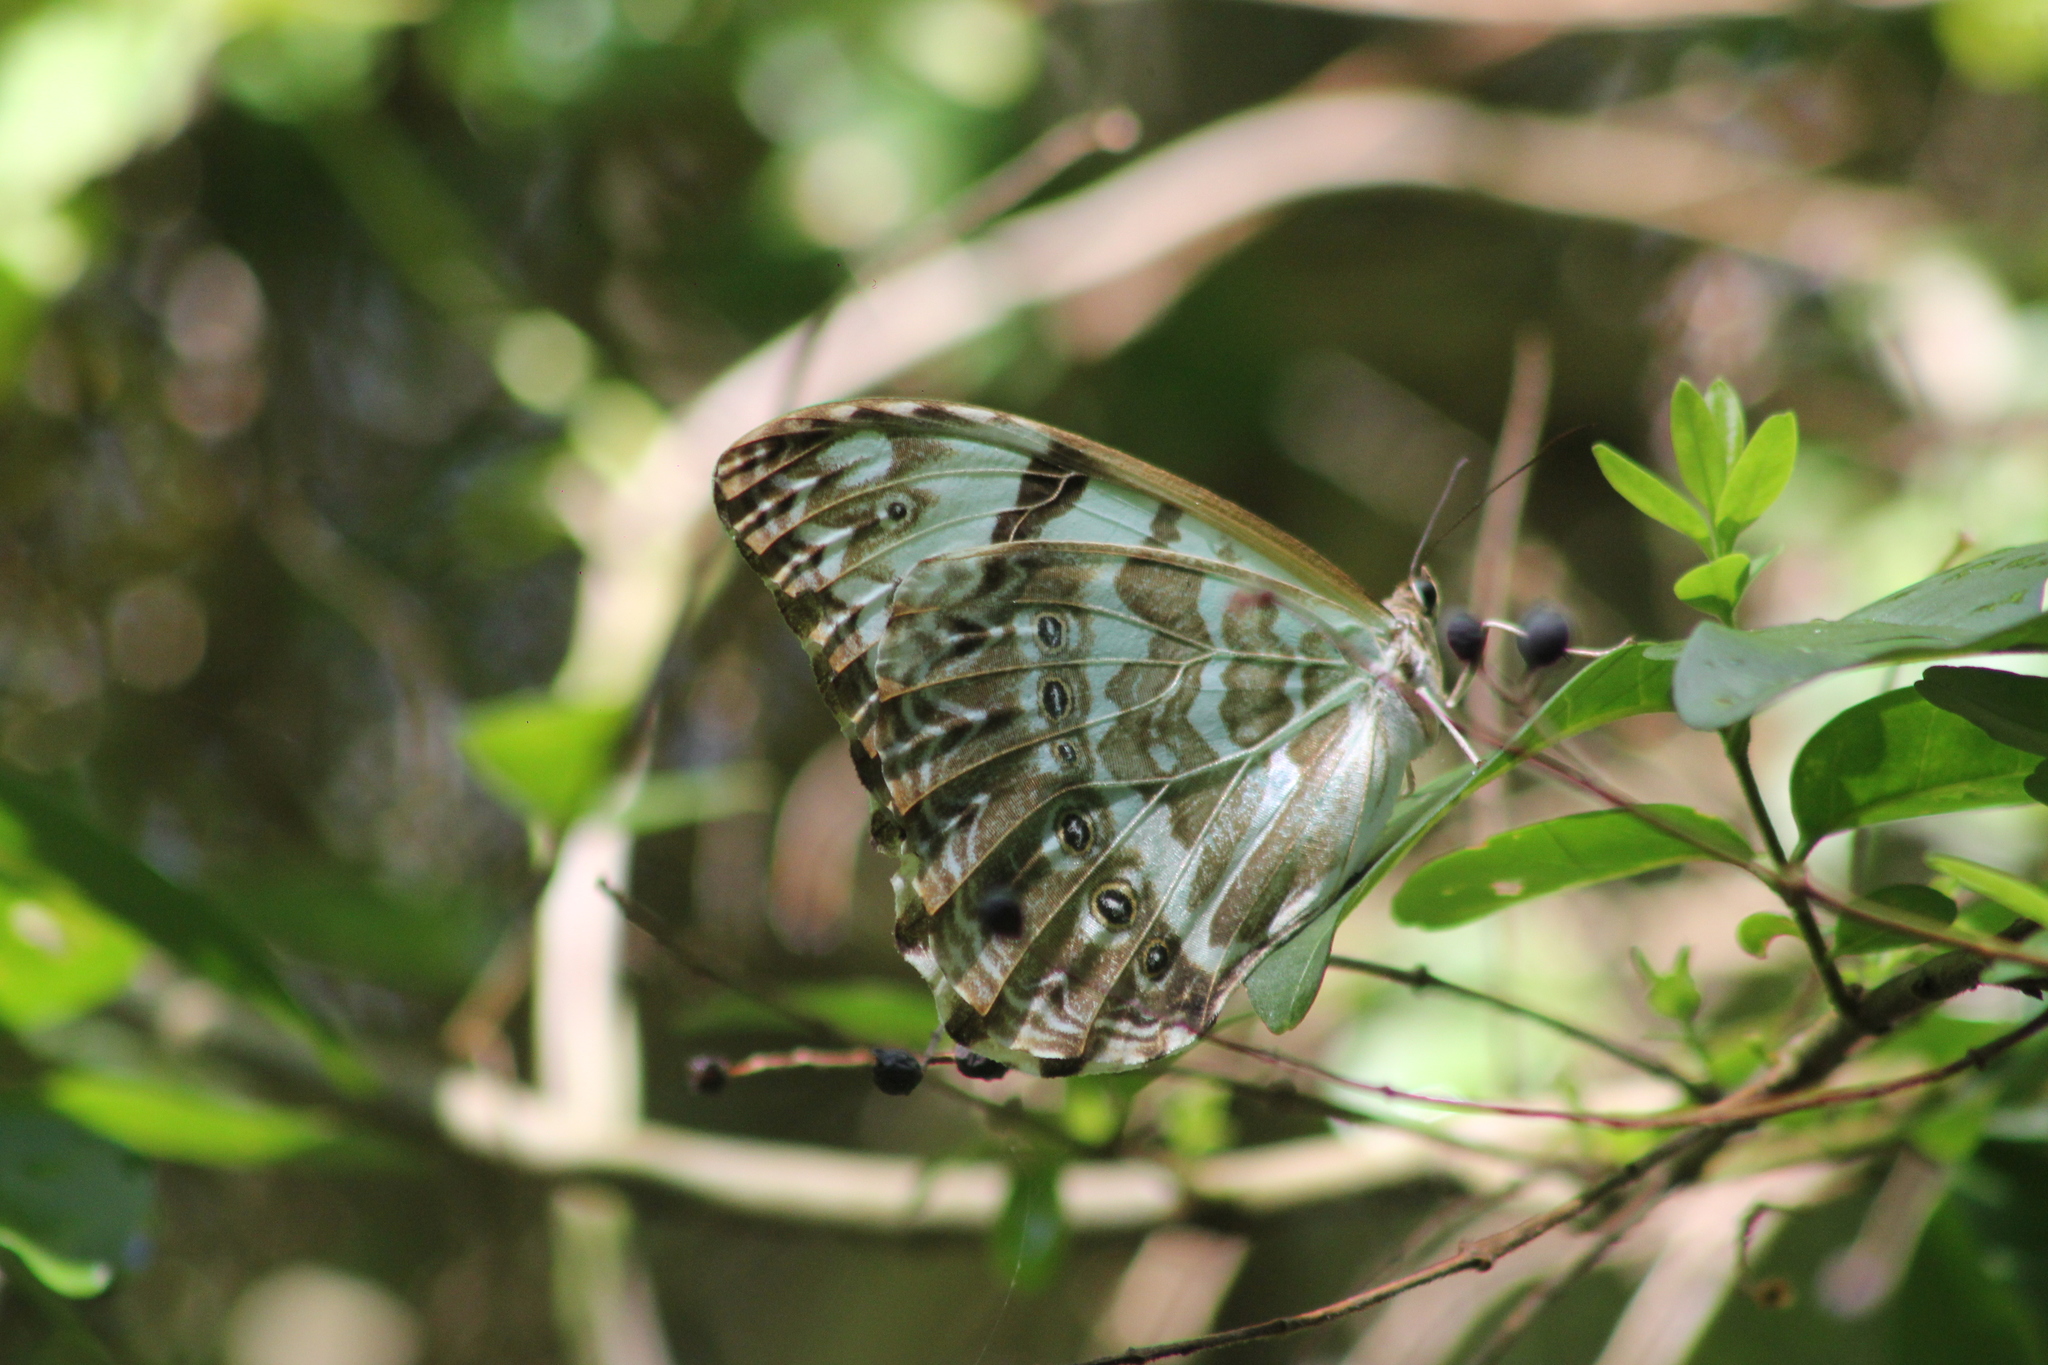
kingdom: Animalia
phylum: Arthropoda
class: Insecta
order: Lepidoptera
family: Nymphalidae
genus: Morpho
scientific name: Morpho epistrophus
